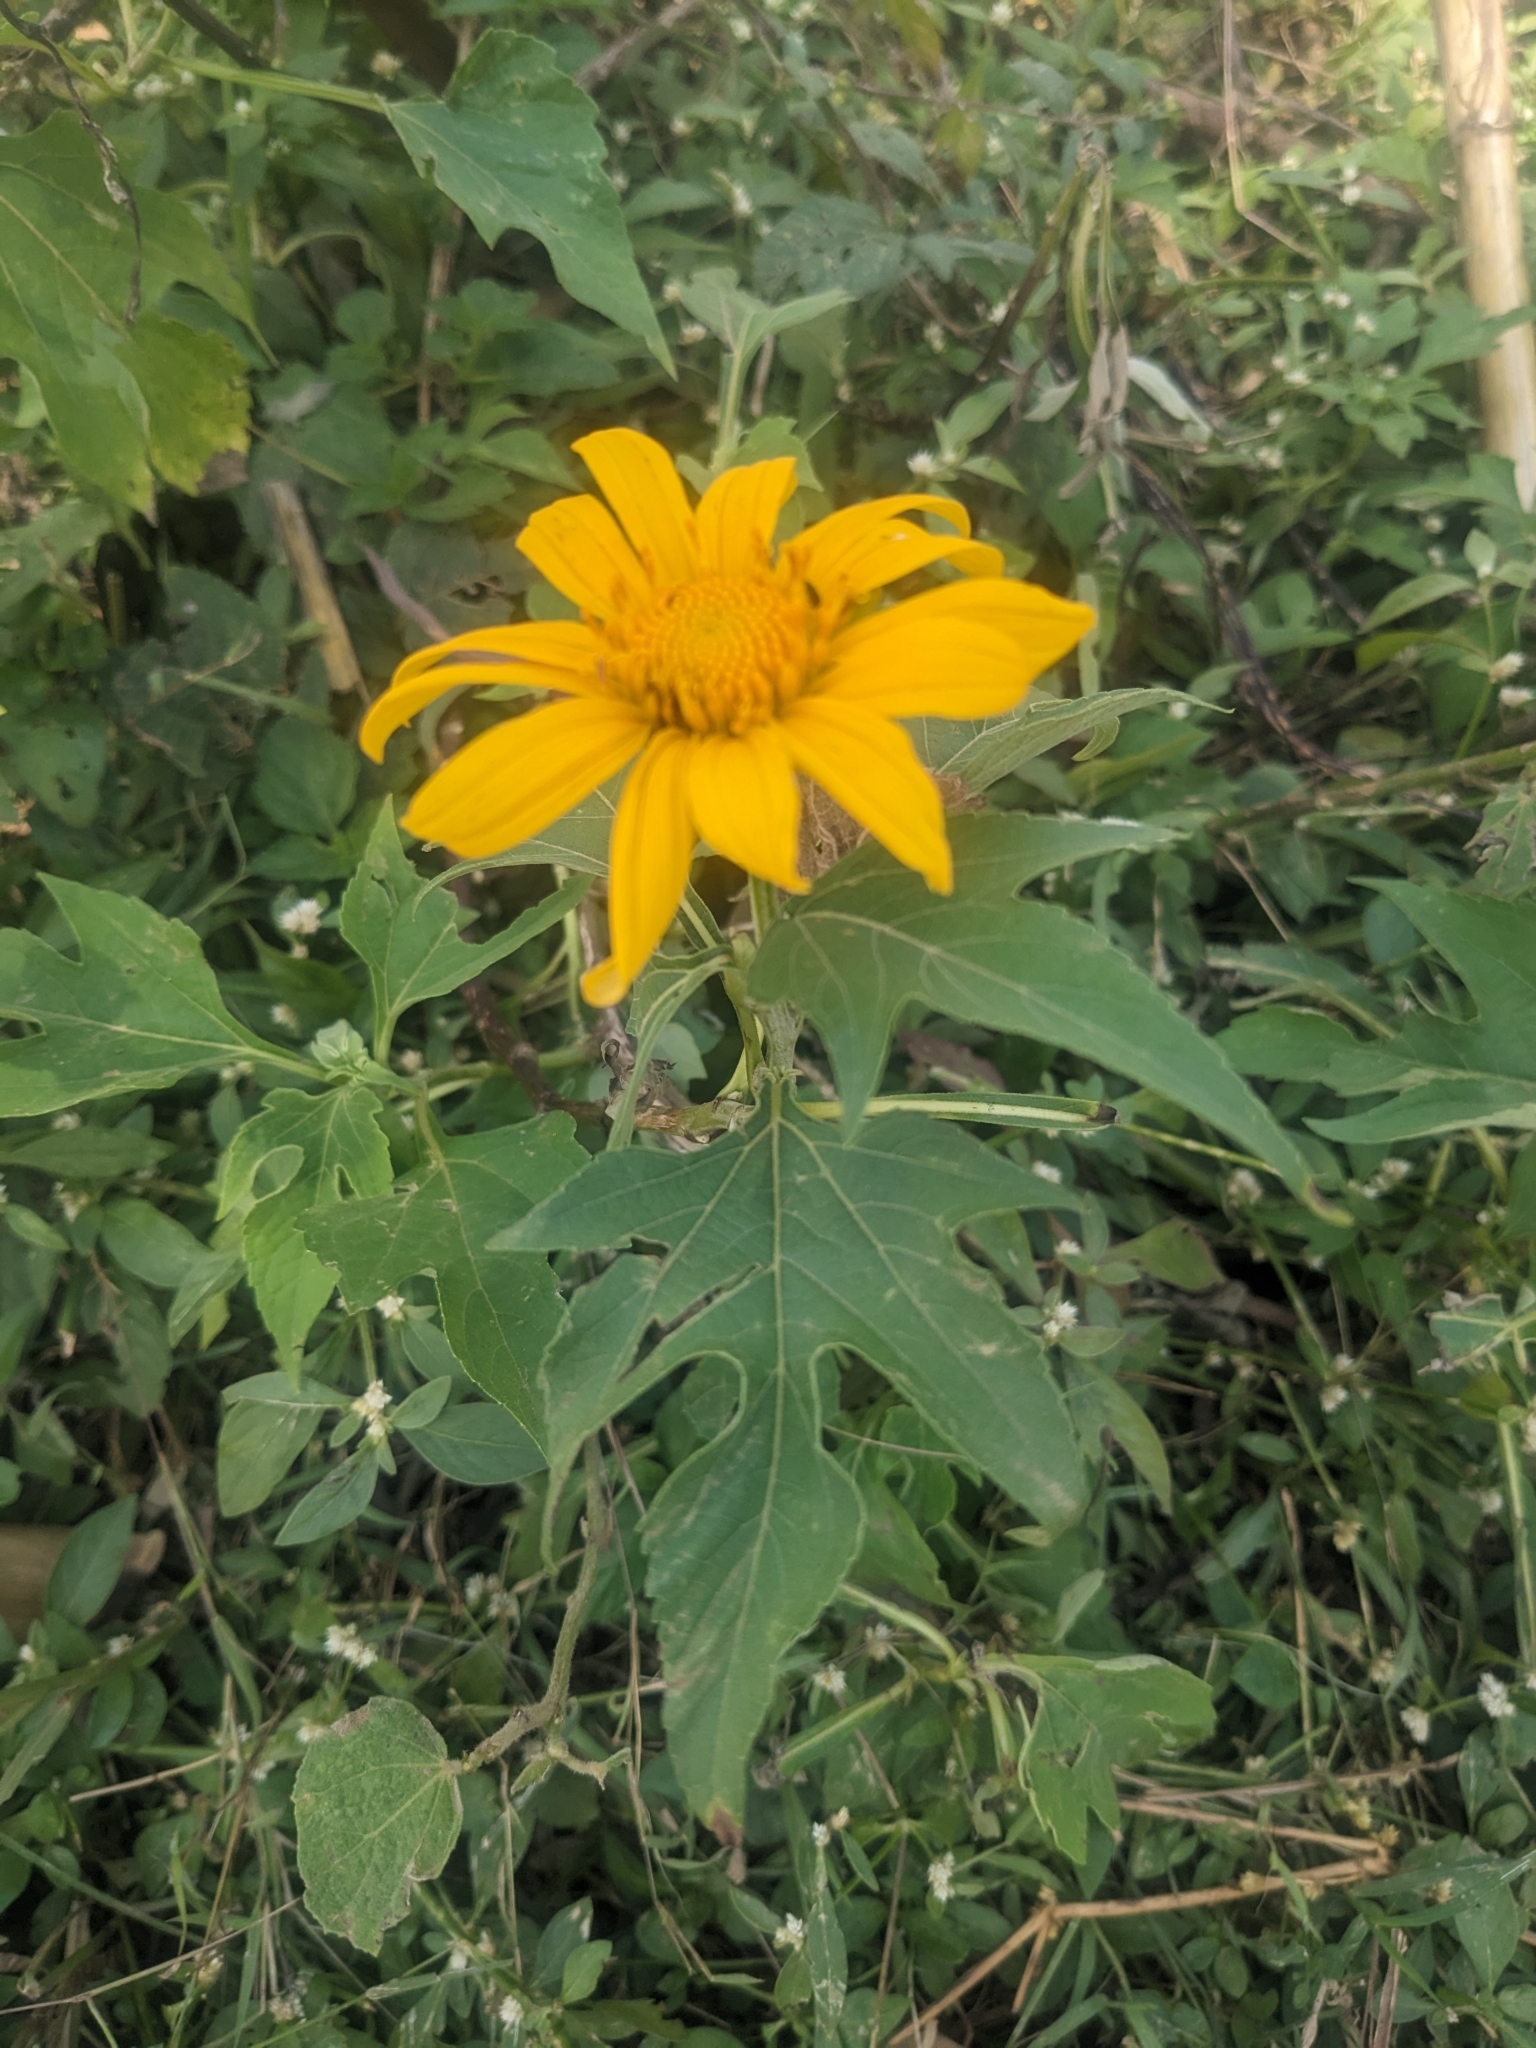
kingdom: Plantae
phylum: Tracheophyta
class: Magnoliopsida
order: Asterales
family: Asteraceae
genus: Tithonia
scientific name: Tithonia diversifolia
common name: Tree marigold
